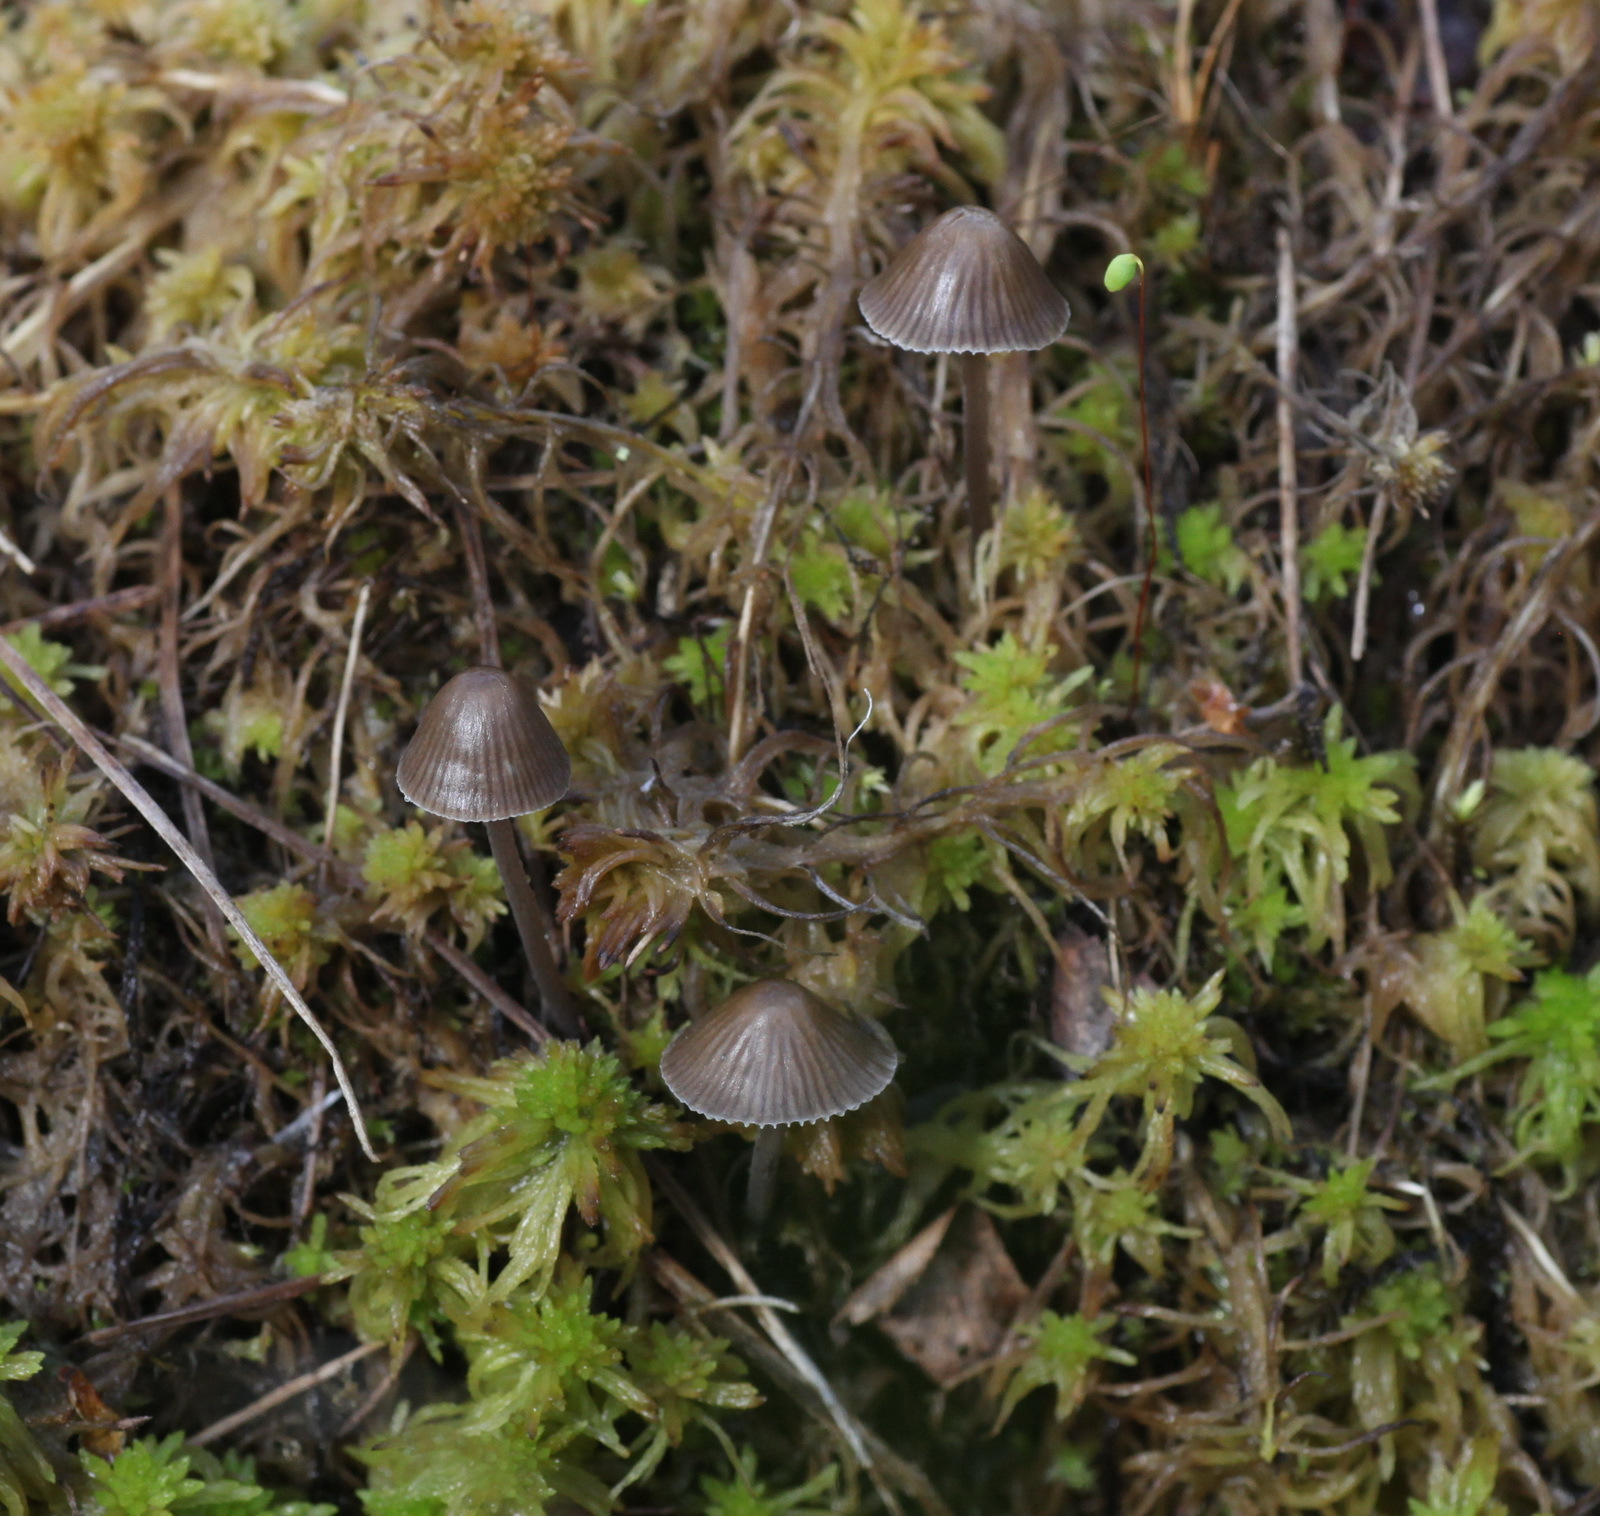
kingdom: Fungi
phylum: Basidiomycota
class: Agaricomycetes
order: Agaricales
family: Mycenaceae
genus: Mycena
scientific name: Mycena silvae-nigrae
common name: Pine bonnet
